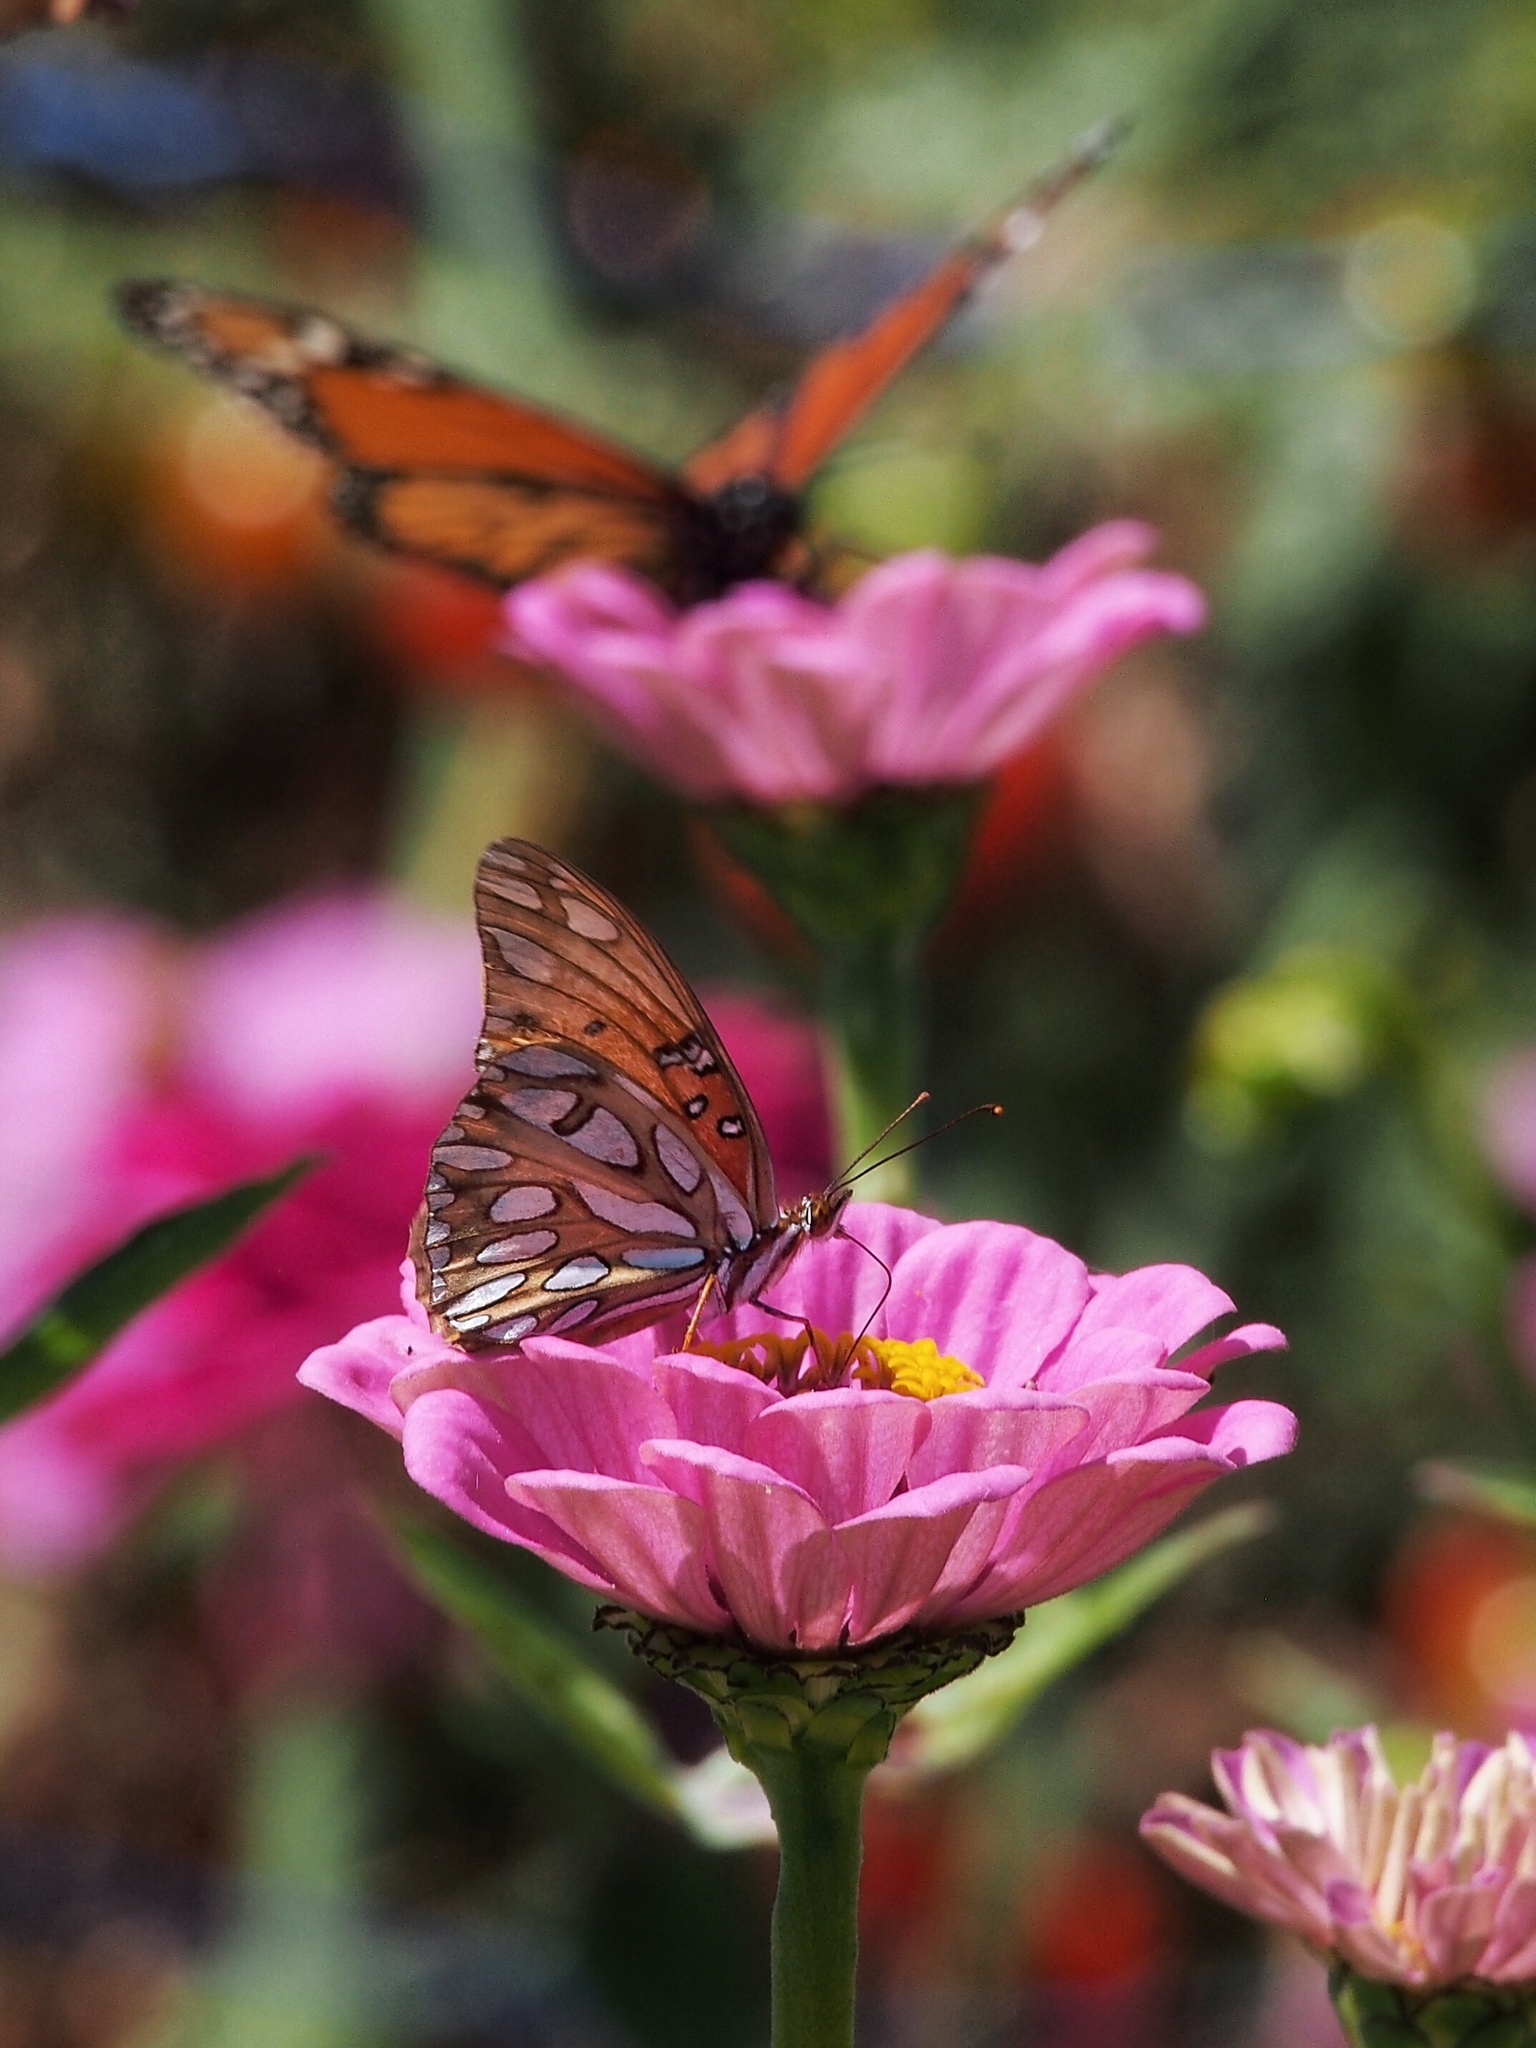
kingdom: Animalia
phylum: Arthropoda
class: Insecta
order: Lepidoptera
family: Nymphalidae
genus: Dione
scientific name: Dione vanillae
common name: Gulf fritillary
